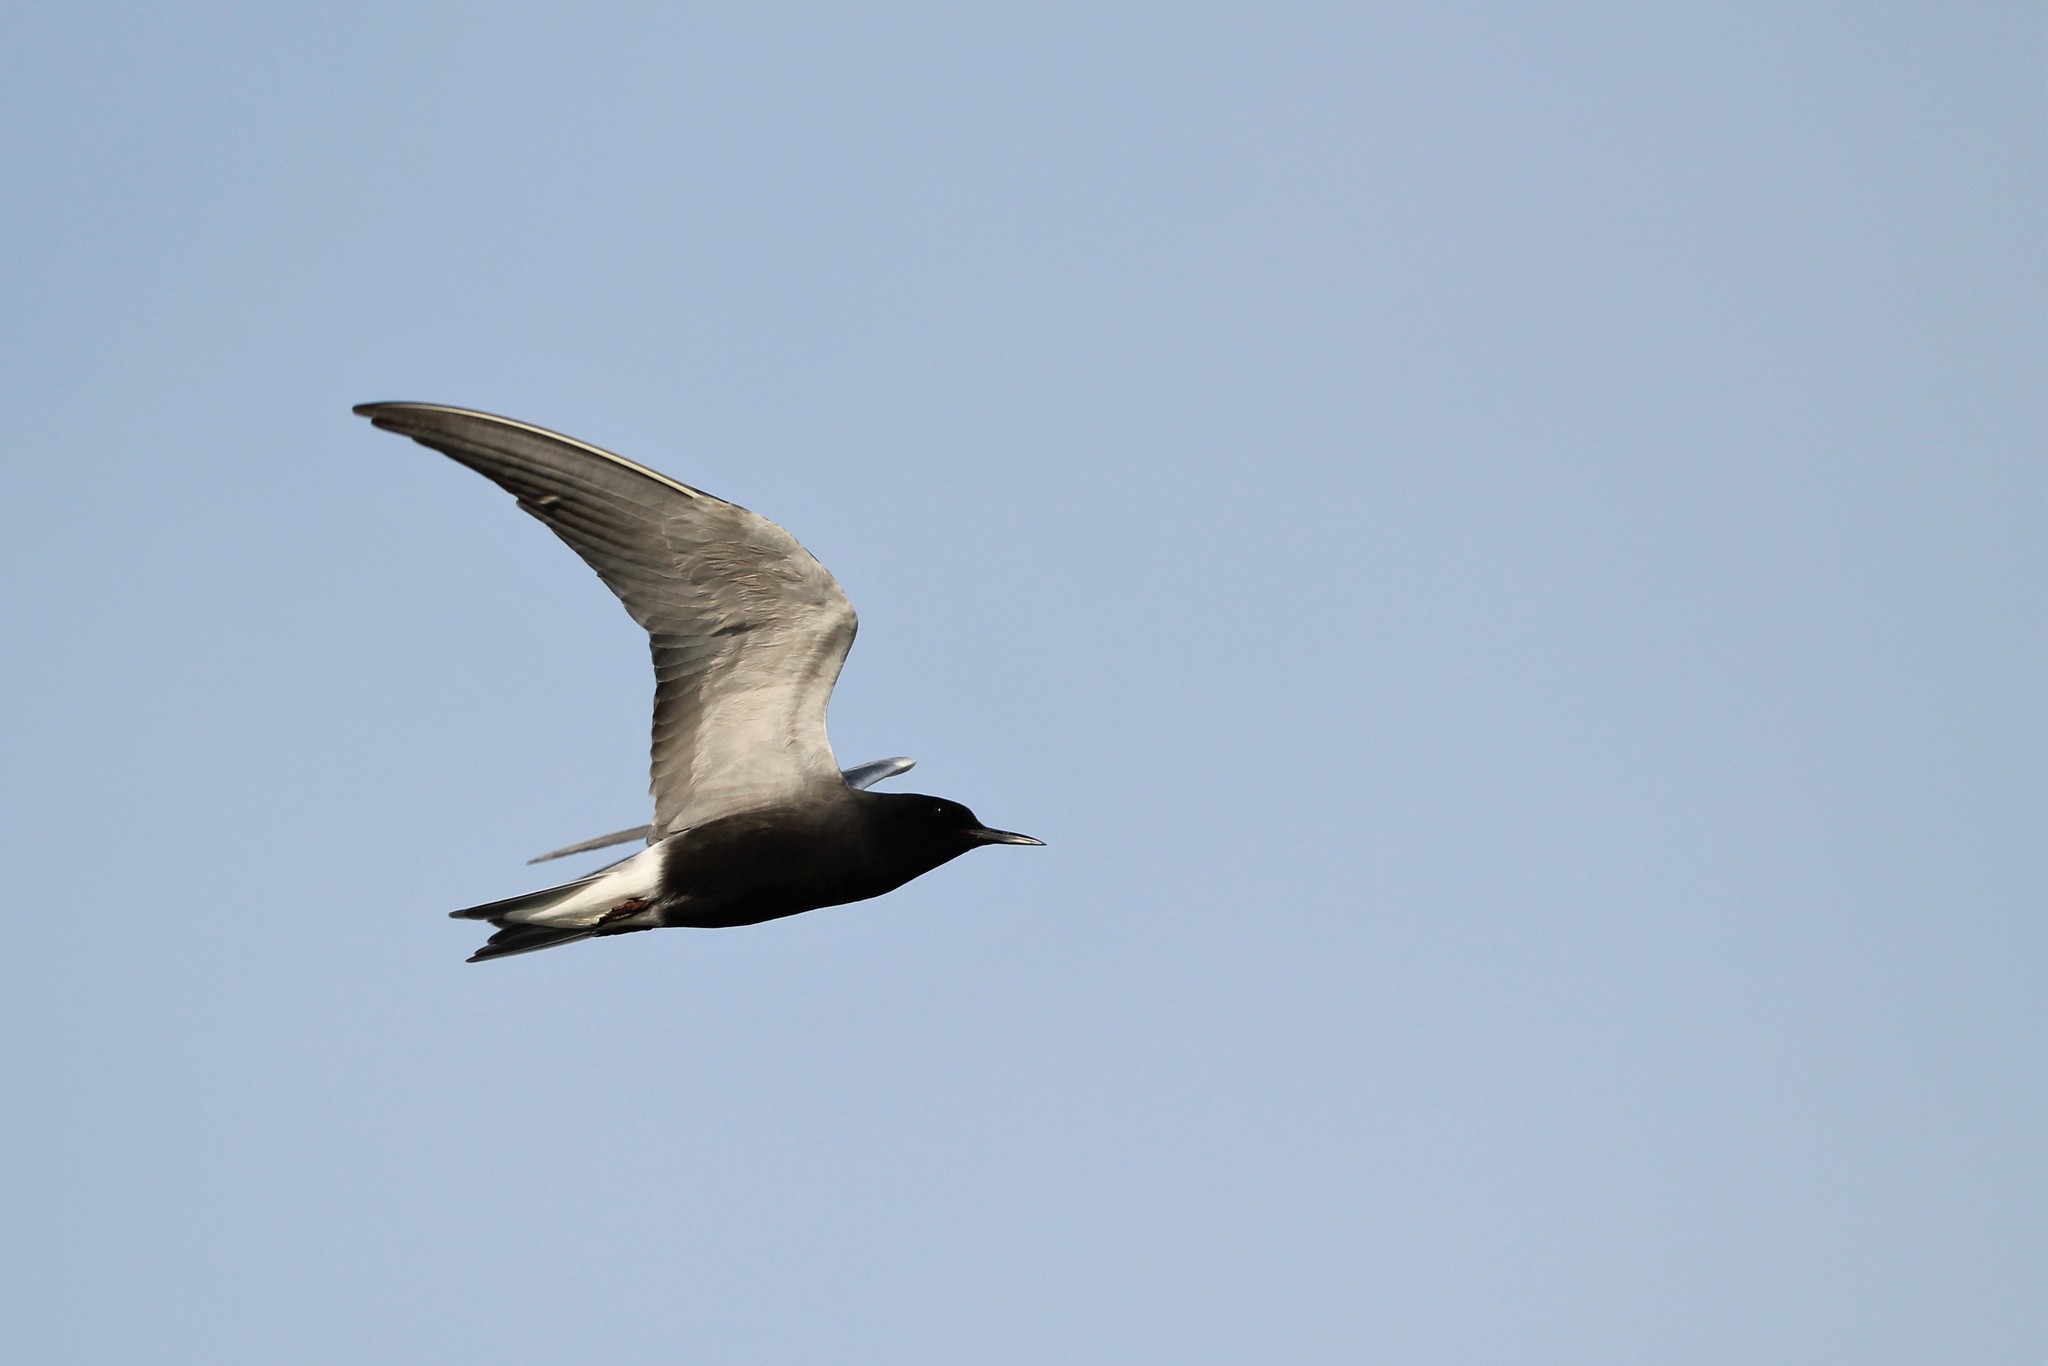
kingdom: Animalia
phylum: Chordata
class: Aves
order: Charadriiformes
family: Laridae
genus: Chlidonias
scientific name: Chlidonias niger
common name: Black tern
